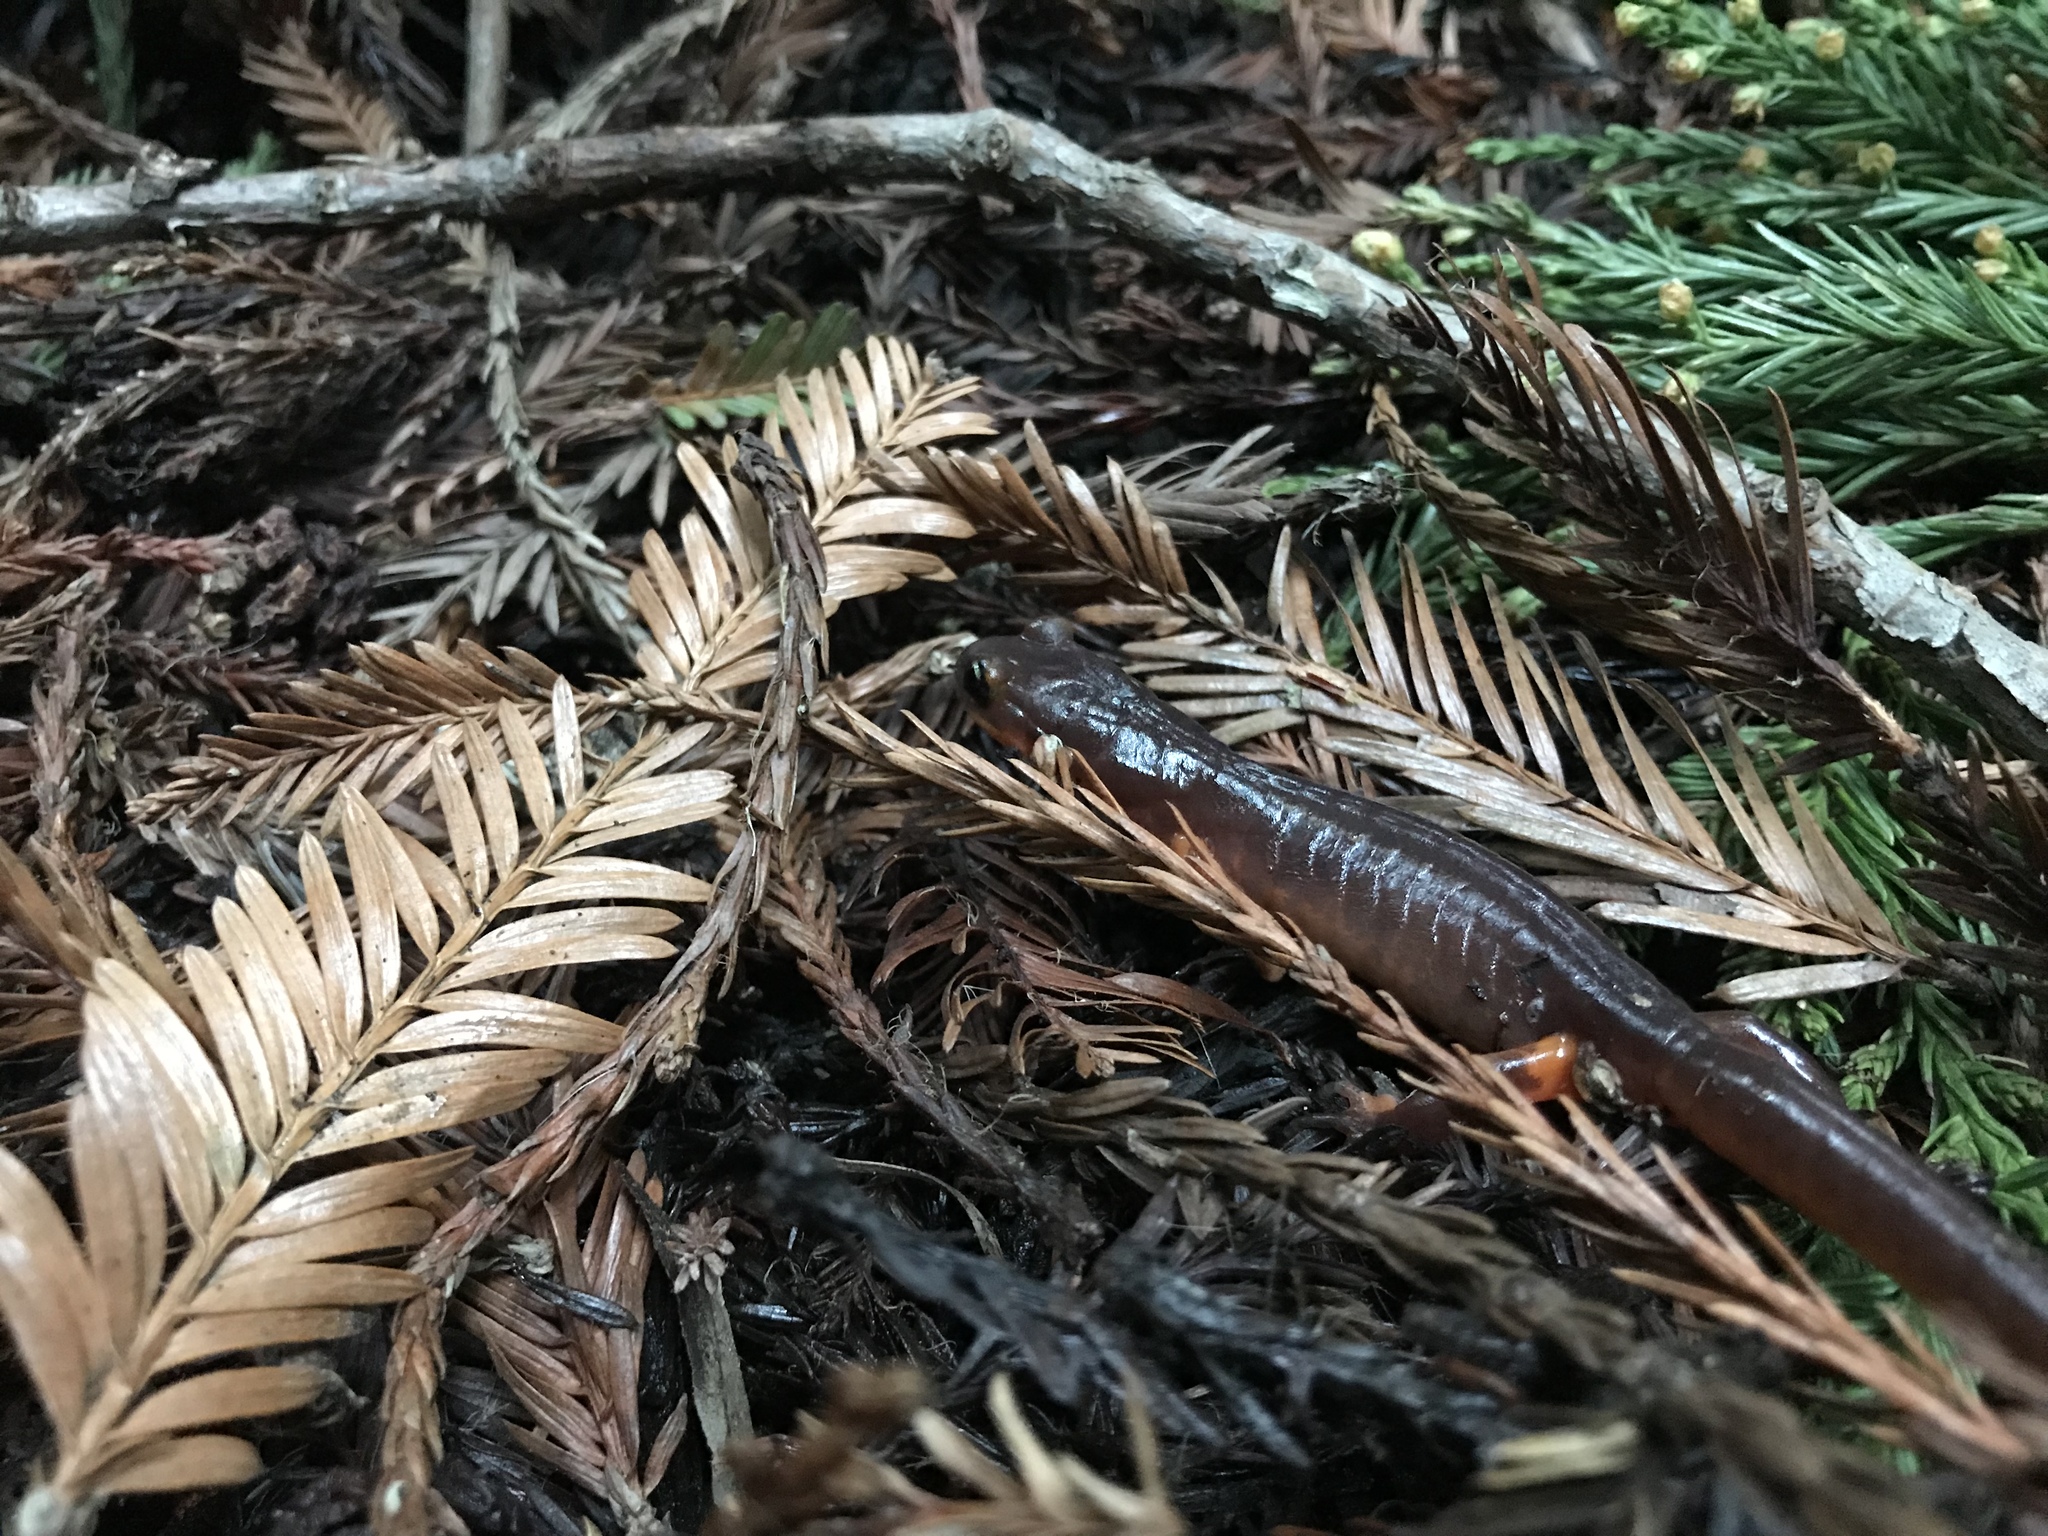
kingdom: Animalia
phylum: Chordata
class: Amphibia
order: Caudata
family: Plethodontidae
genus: Ensatina
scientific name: Ensatina eschscholtzii
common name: Ensatina
